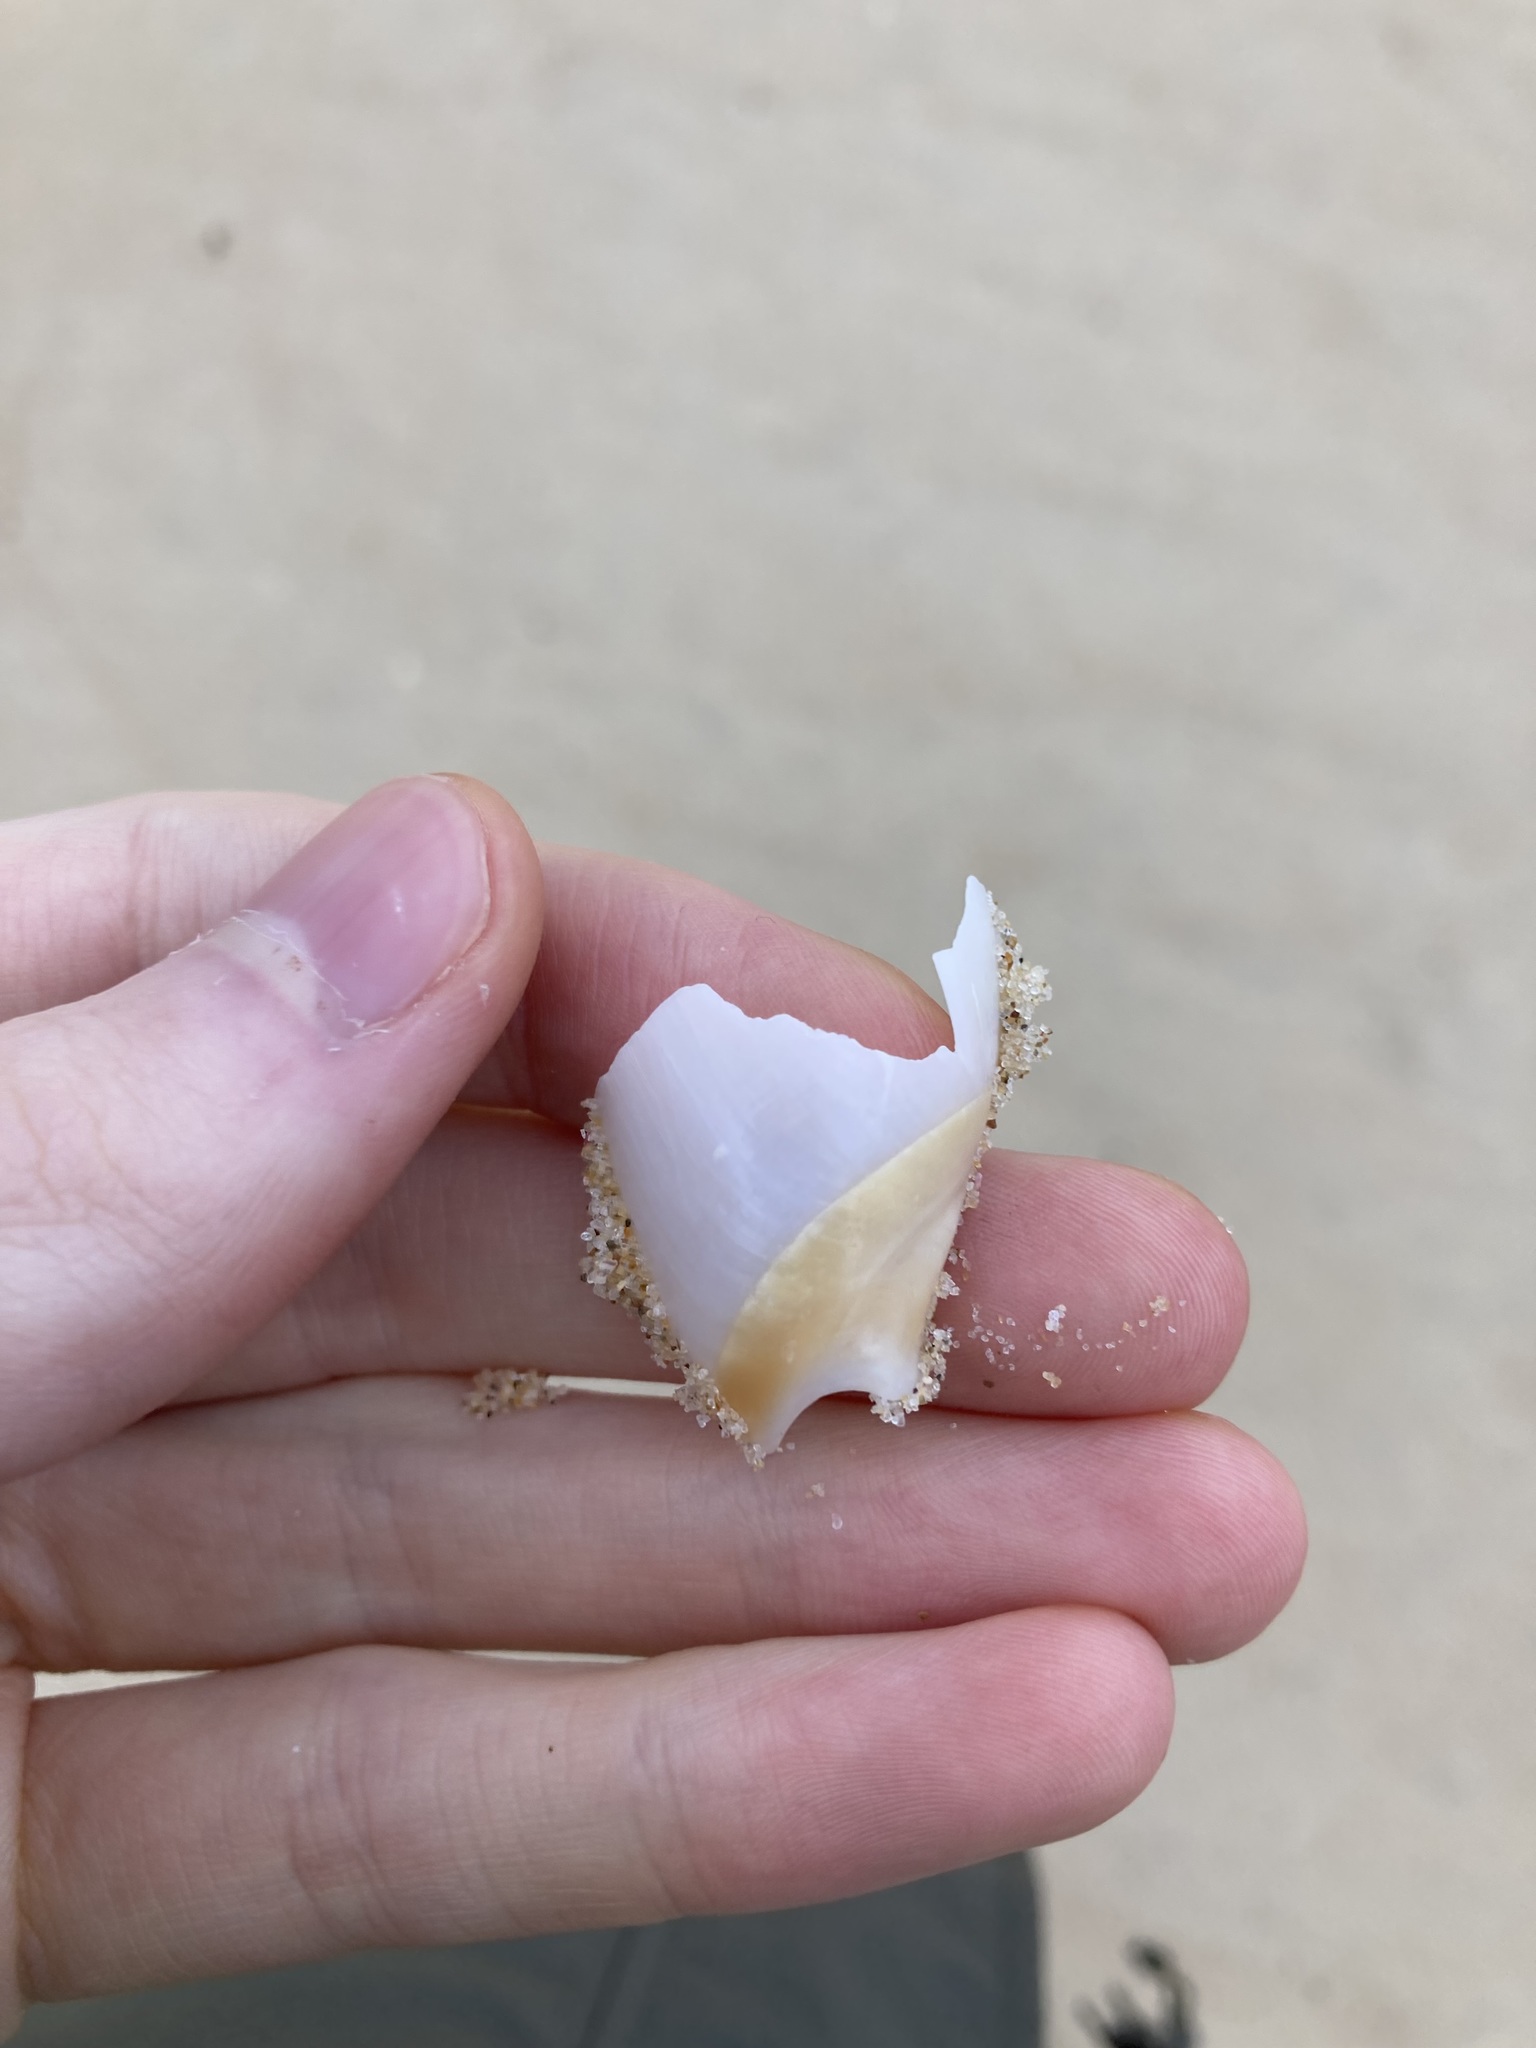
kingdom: Animalia
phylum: Mollusca
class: Gastropoda
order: Neogastropoda
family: Ancillariidae
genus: Ancillista
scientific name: Ancillista velesiana
